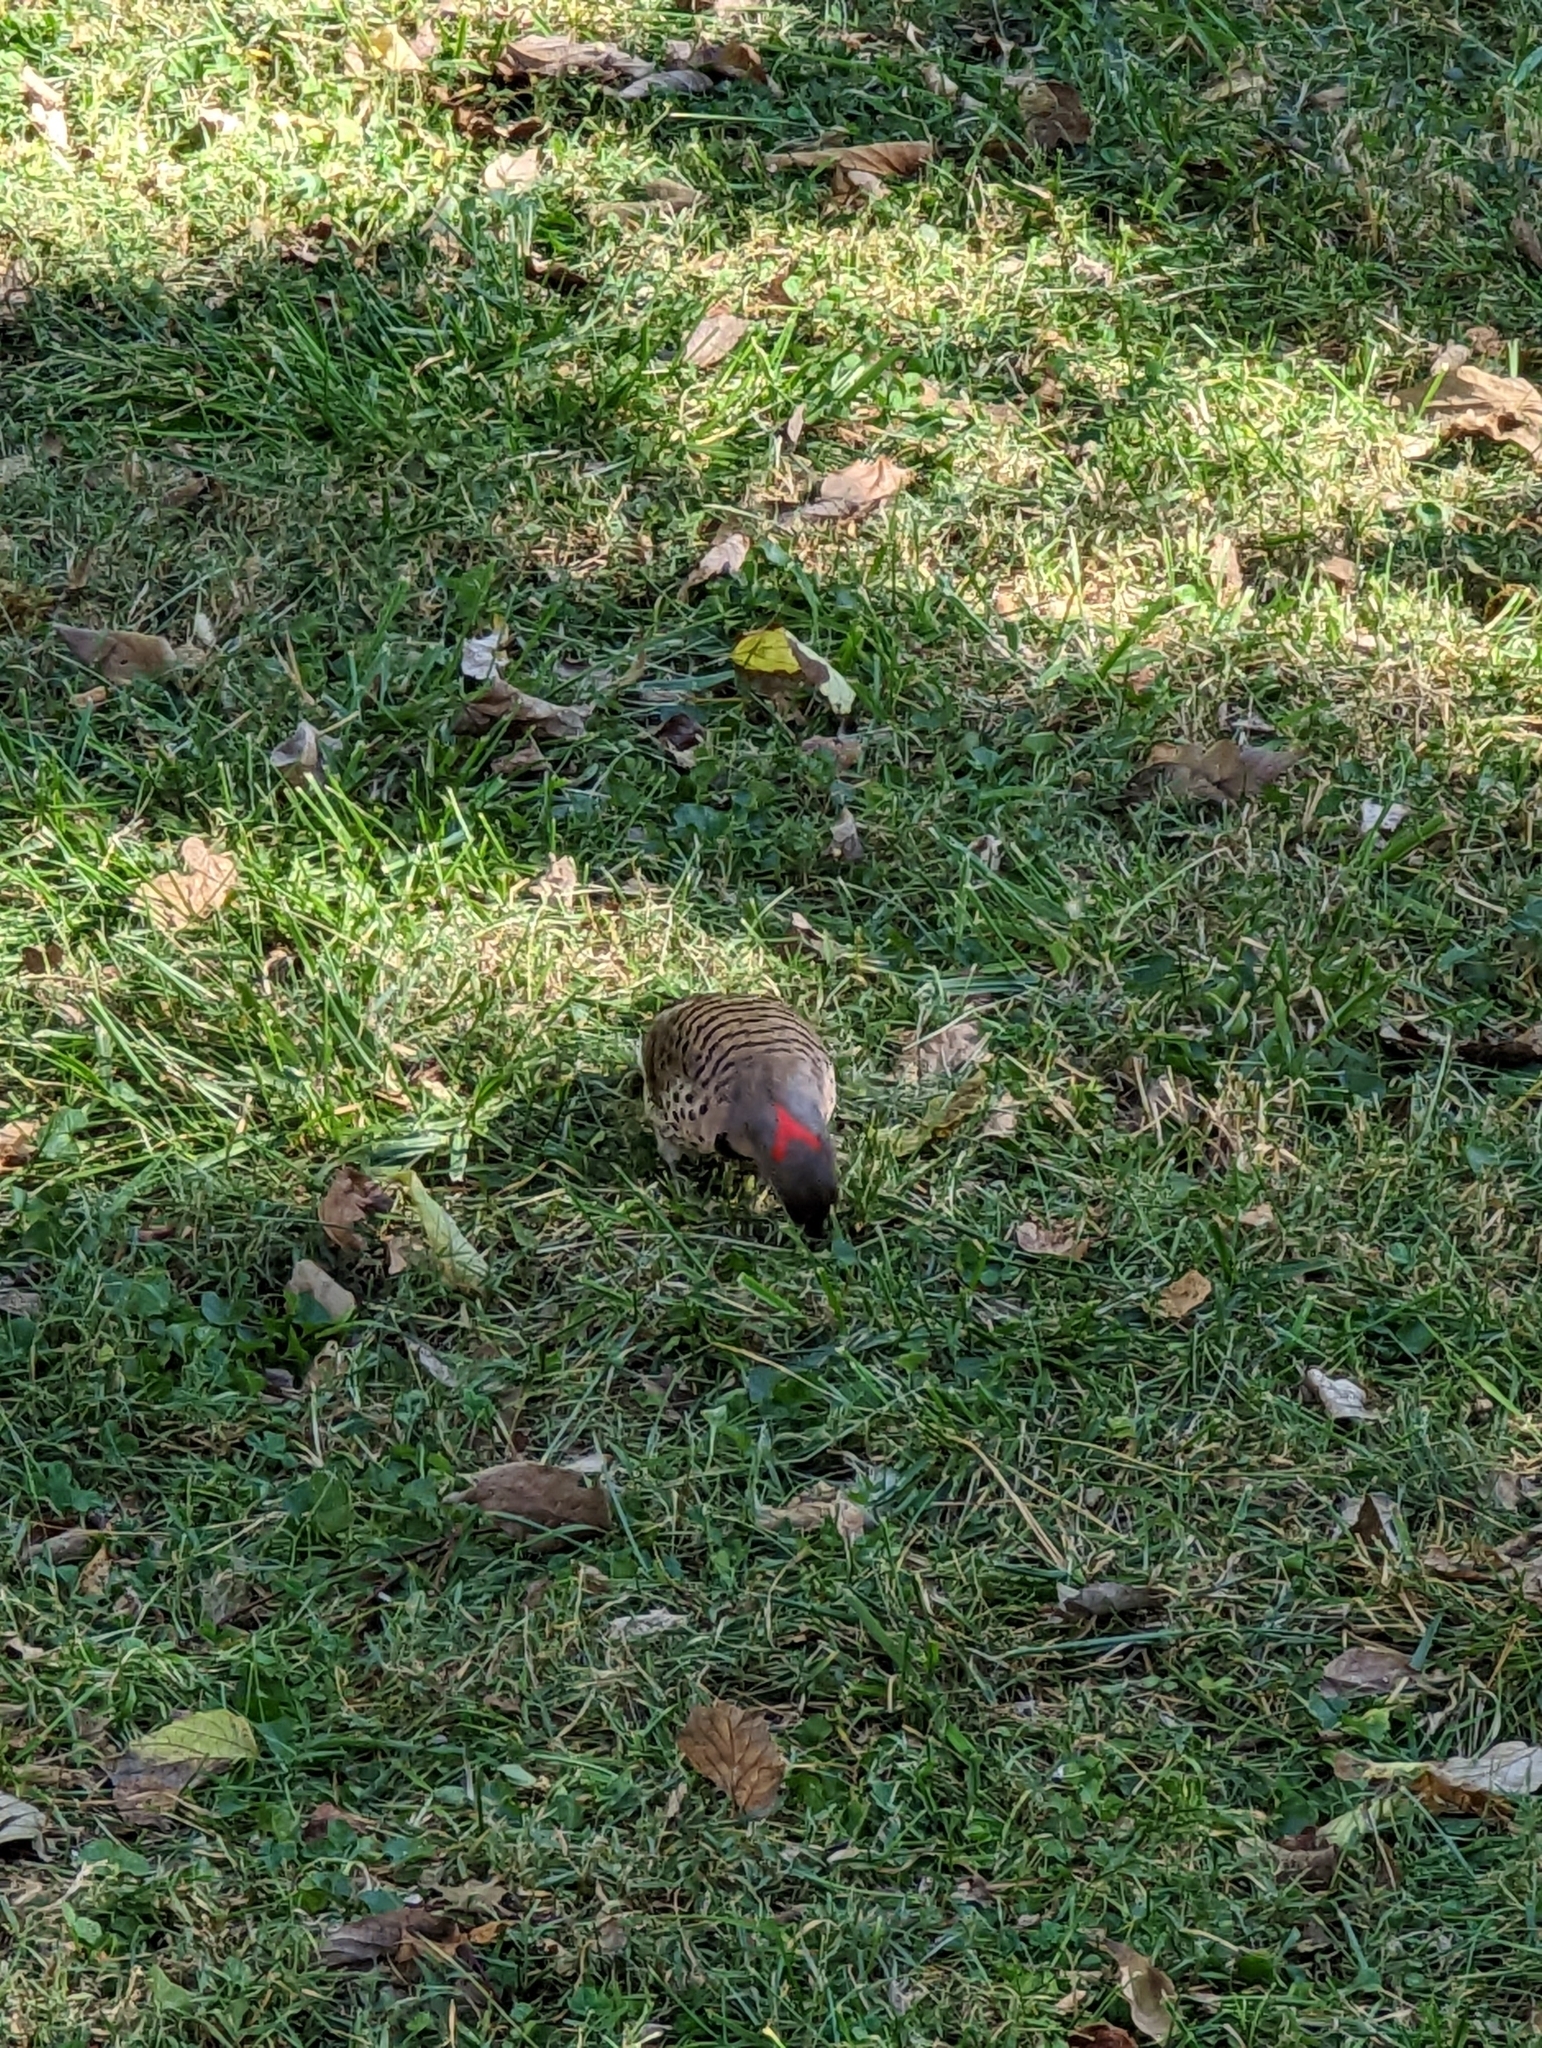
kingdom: Animalia
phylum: Chordata
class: Aves
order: Piciformes
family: Picidae
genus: Colaptes
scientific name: Colaptes auratus
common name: Northern flicker
